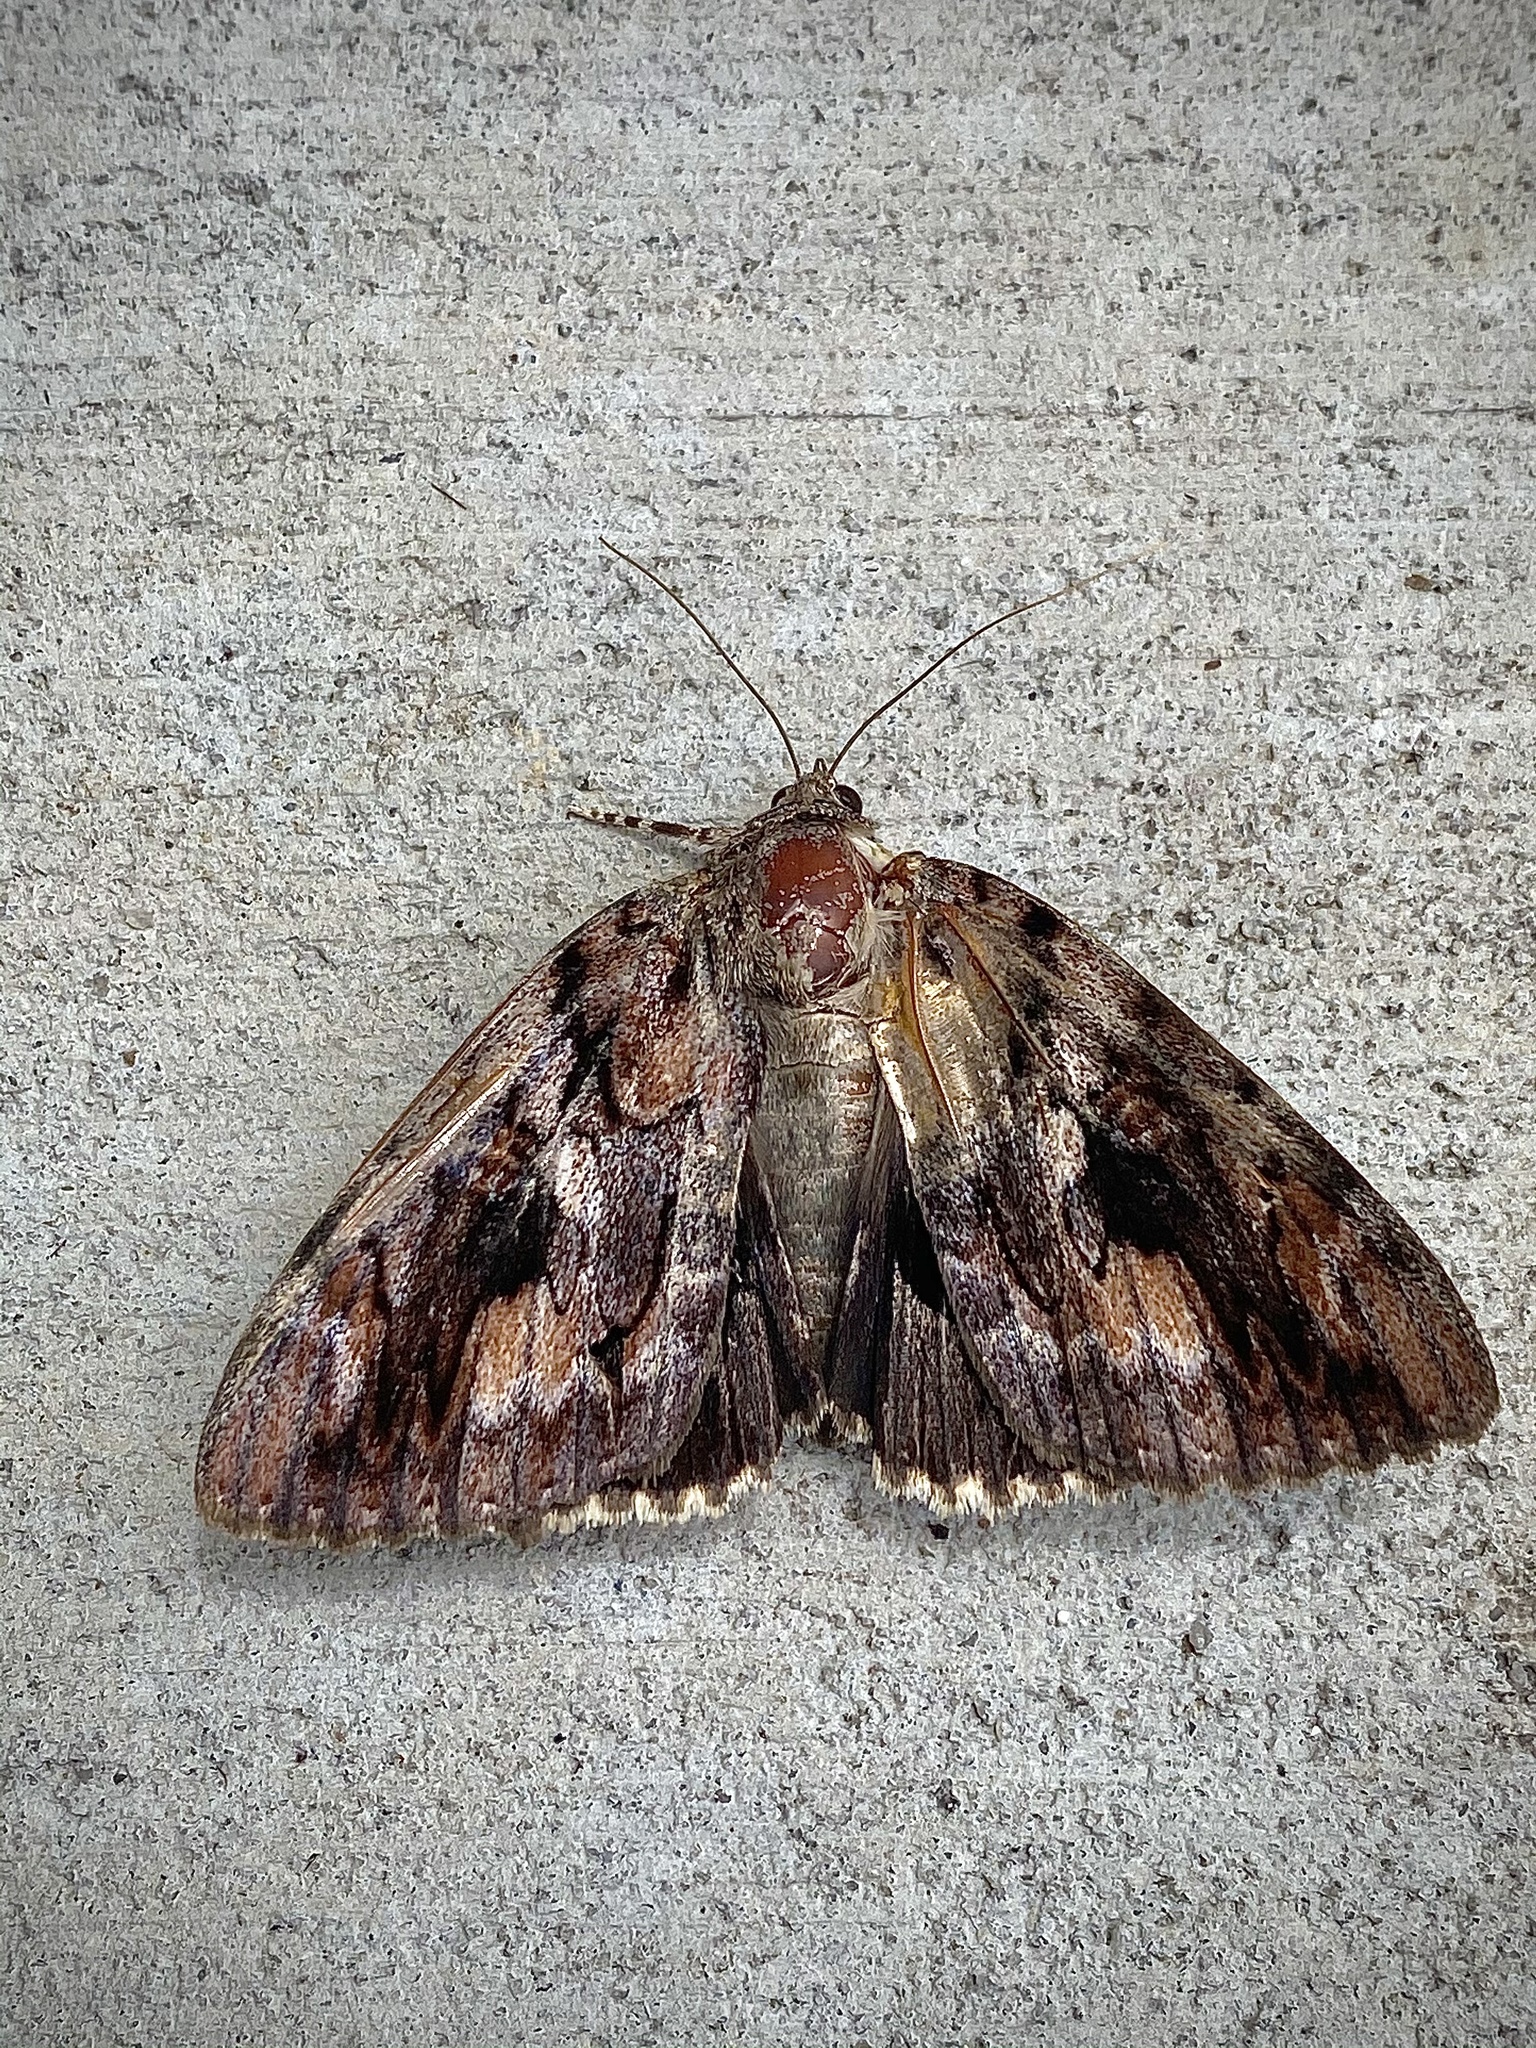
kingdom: Animalia
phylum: Arthropoda
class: Insecta
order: Lepidoptera
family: Erebidae
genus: Catocala
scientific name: Catocala agrippina
